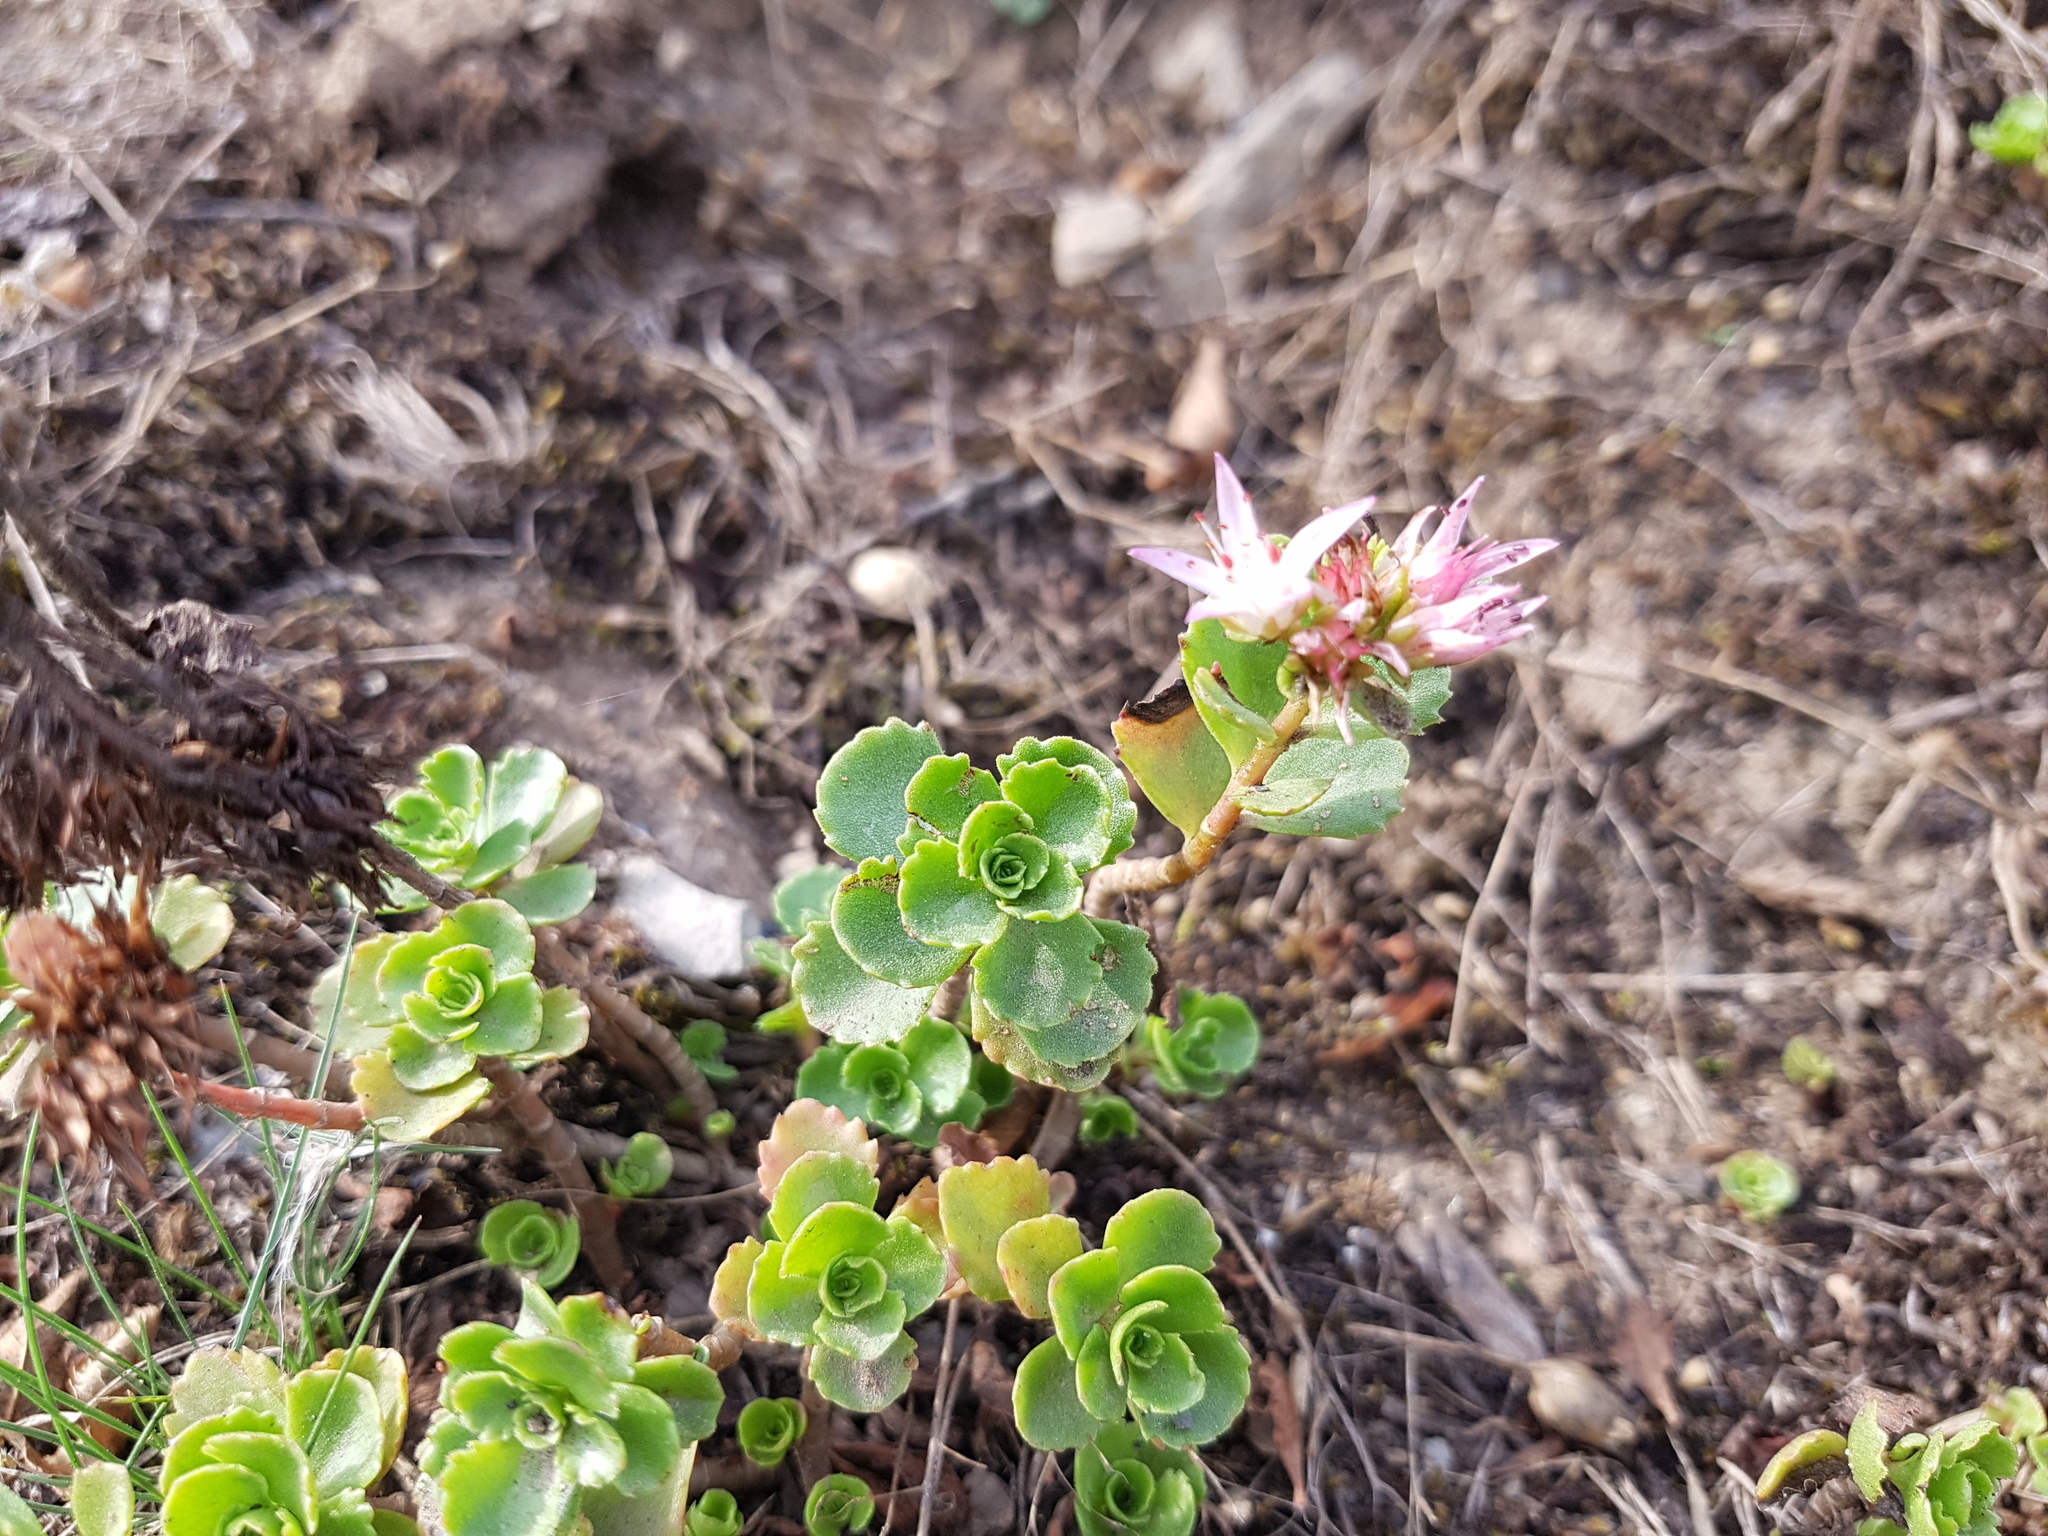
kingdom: Plantae
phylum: Tracheophyta
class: Magnoliopsida
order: Saxifragales
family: Crassulaceae
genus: Phedimus
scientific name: Phedimus spurius
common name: Caucasian stonecrop
